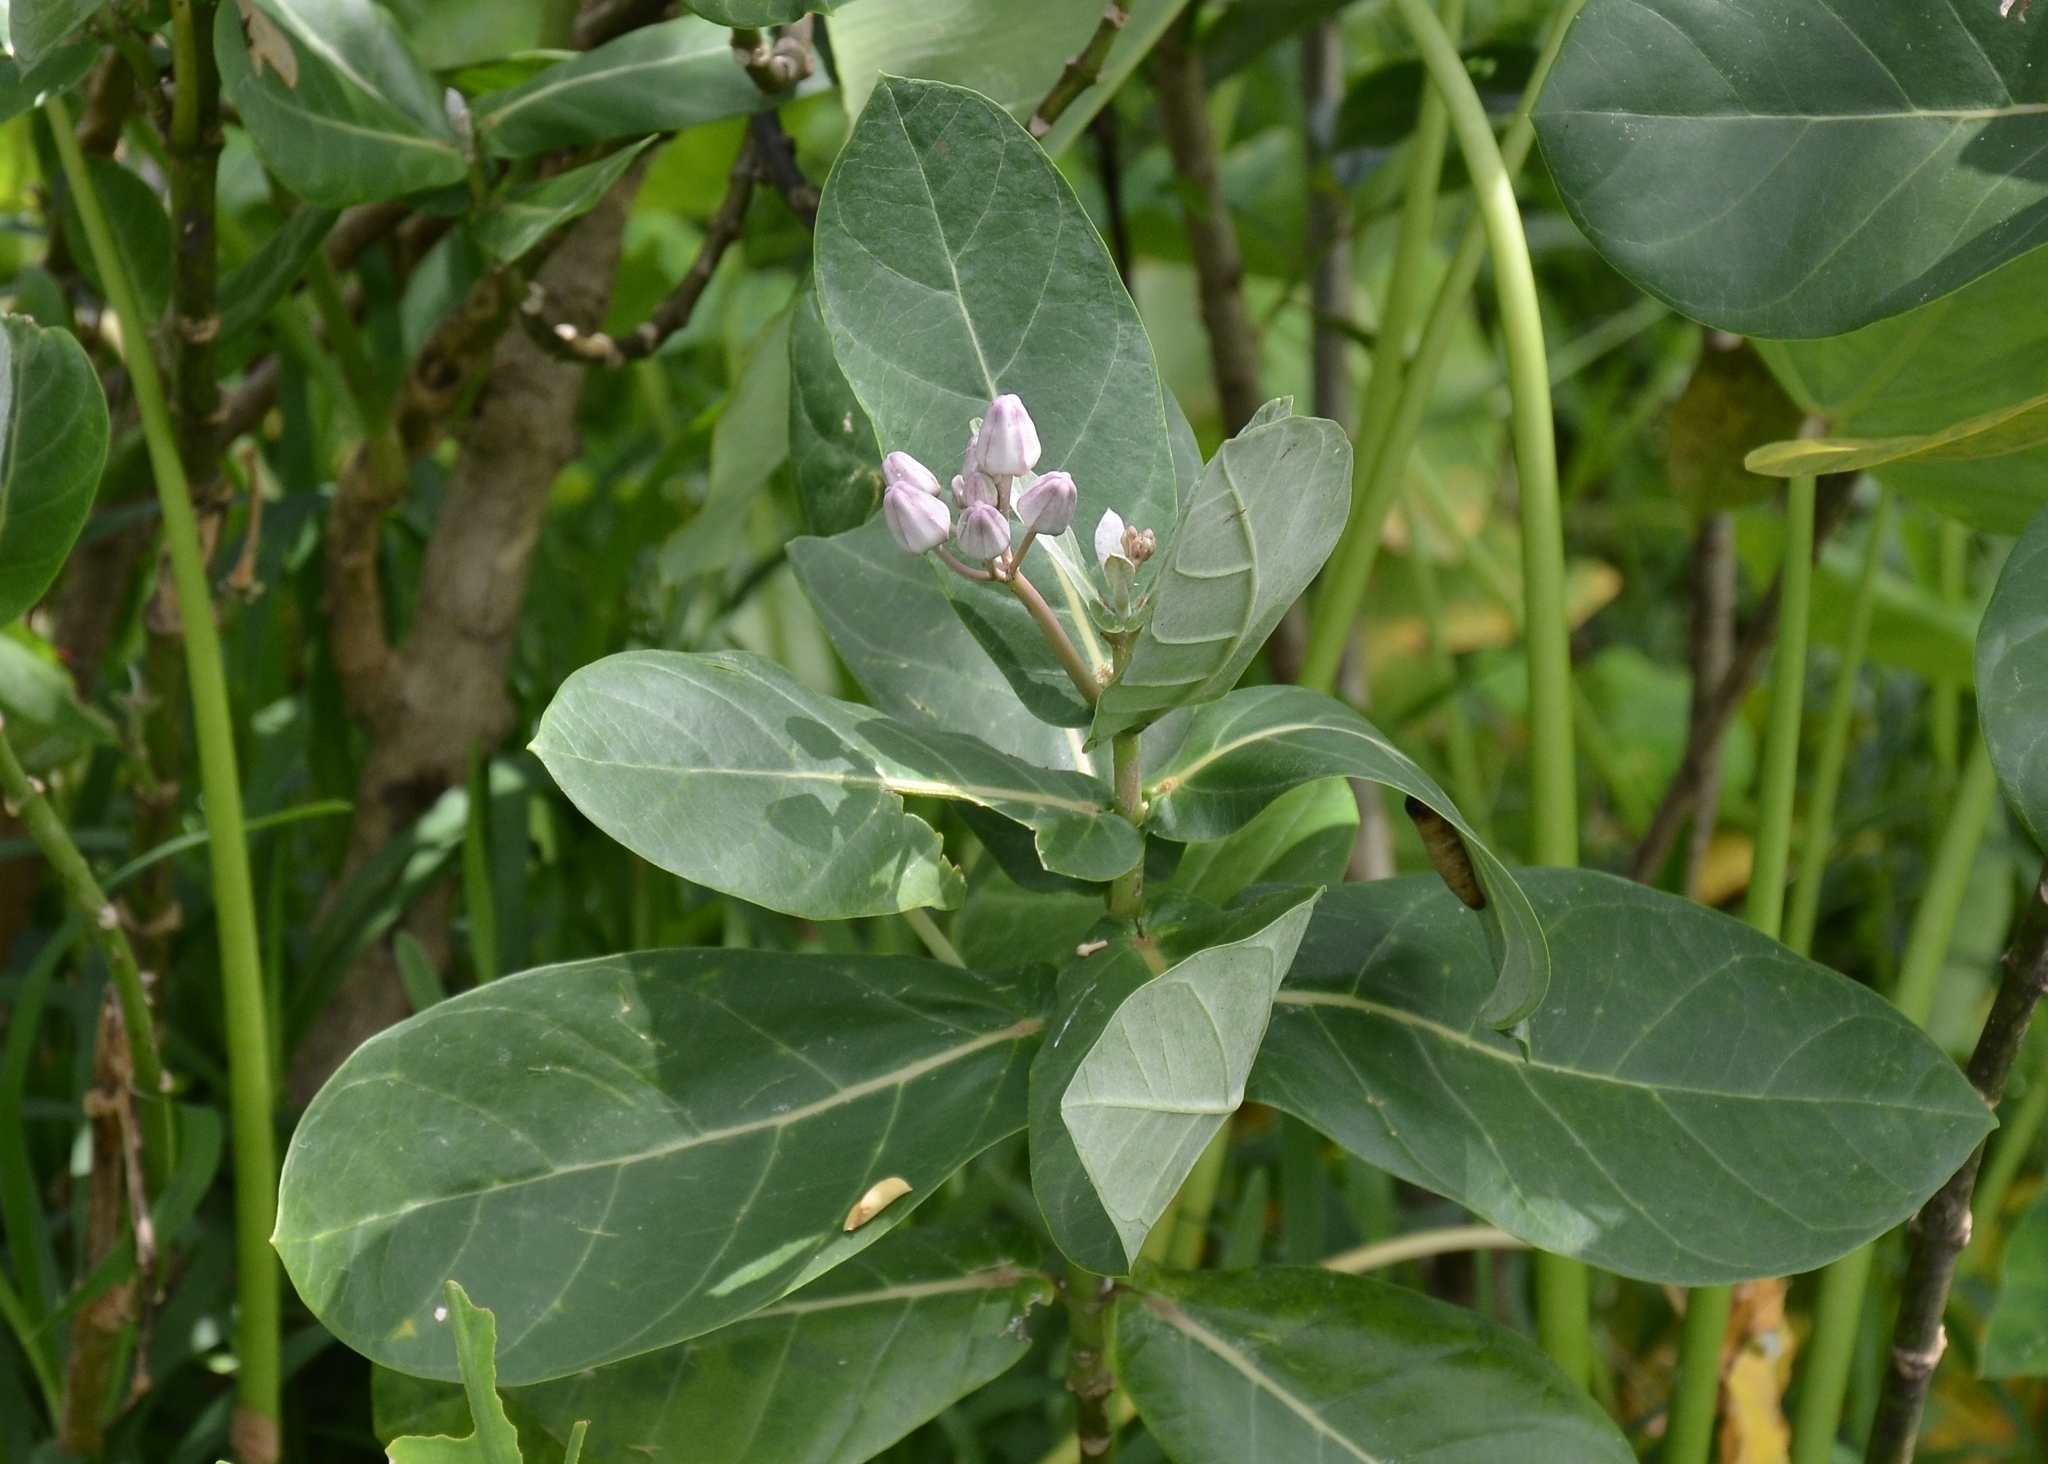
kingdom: Plantae
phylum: Tracheophyta
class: Magnoliopsida
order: Gentianales
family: Apocynaceae
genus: Calotropis
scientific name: Calotropis gigantea
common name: Crown flower
